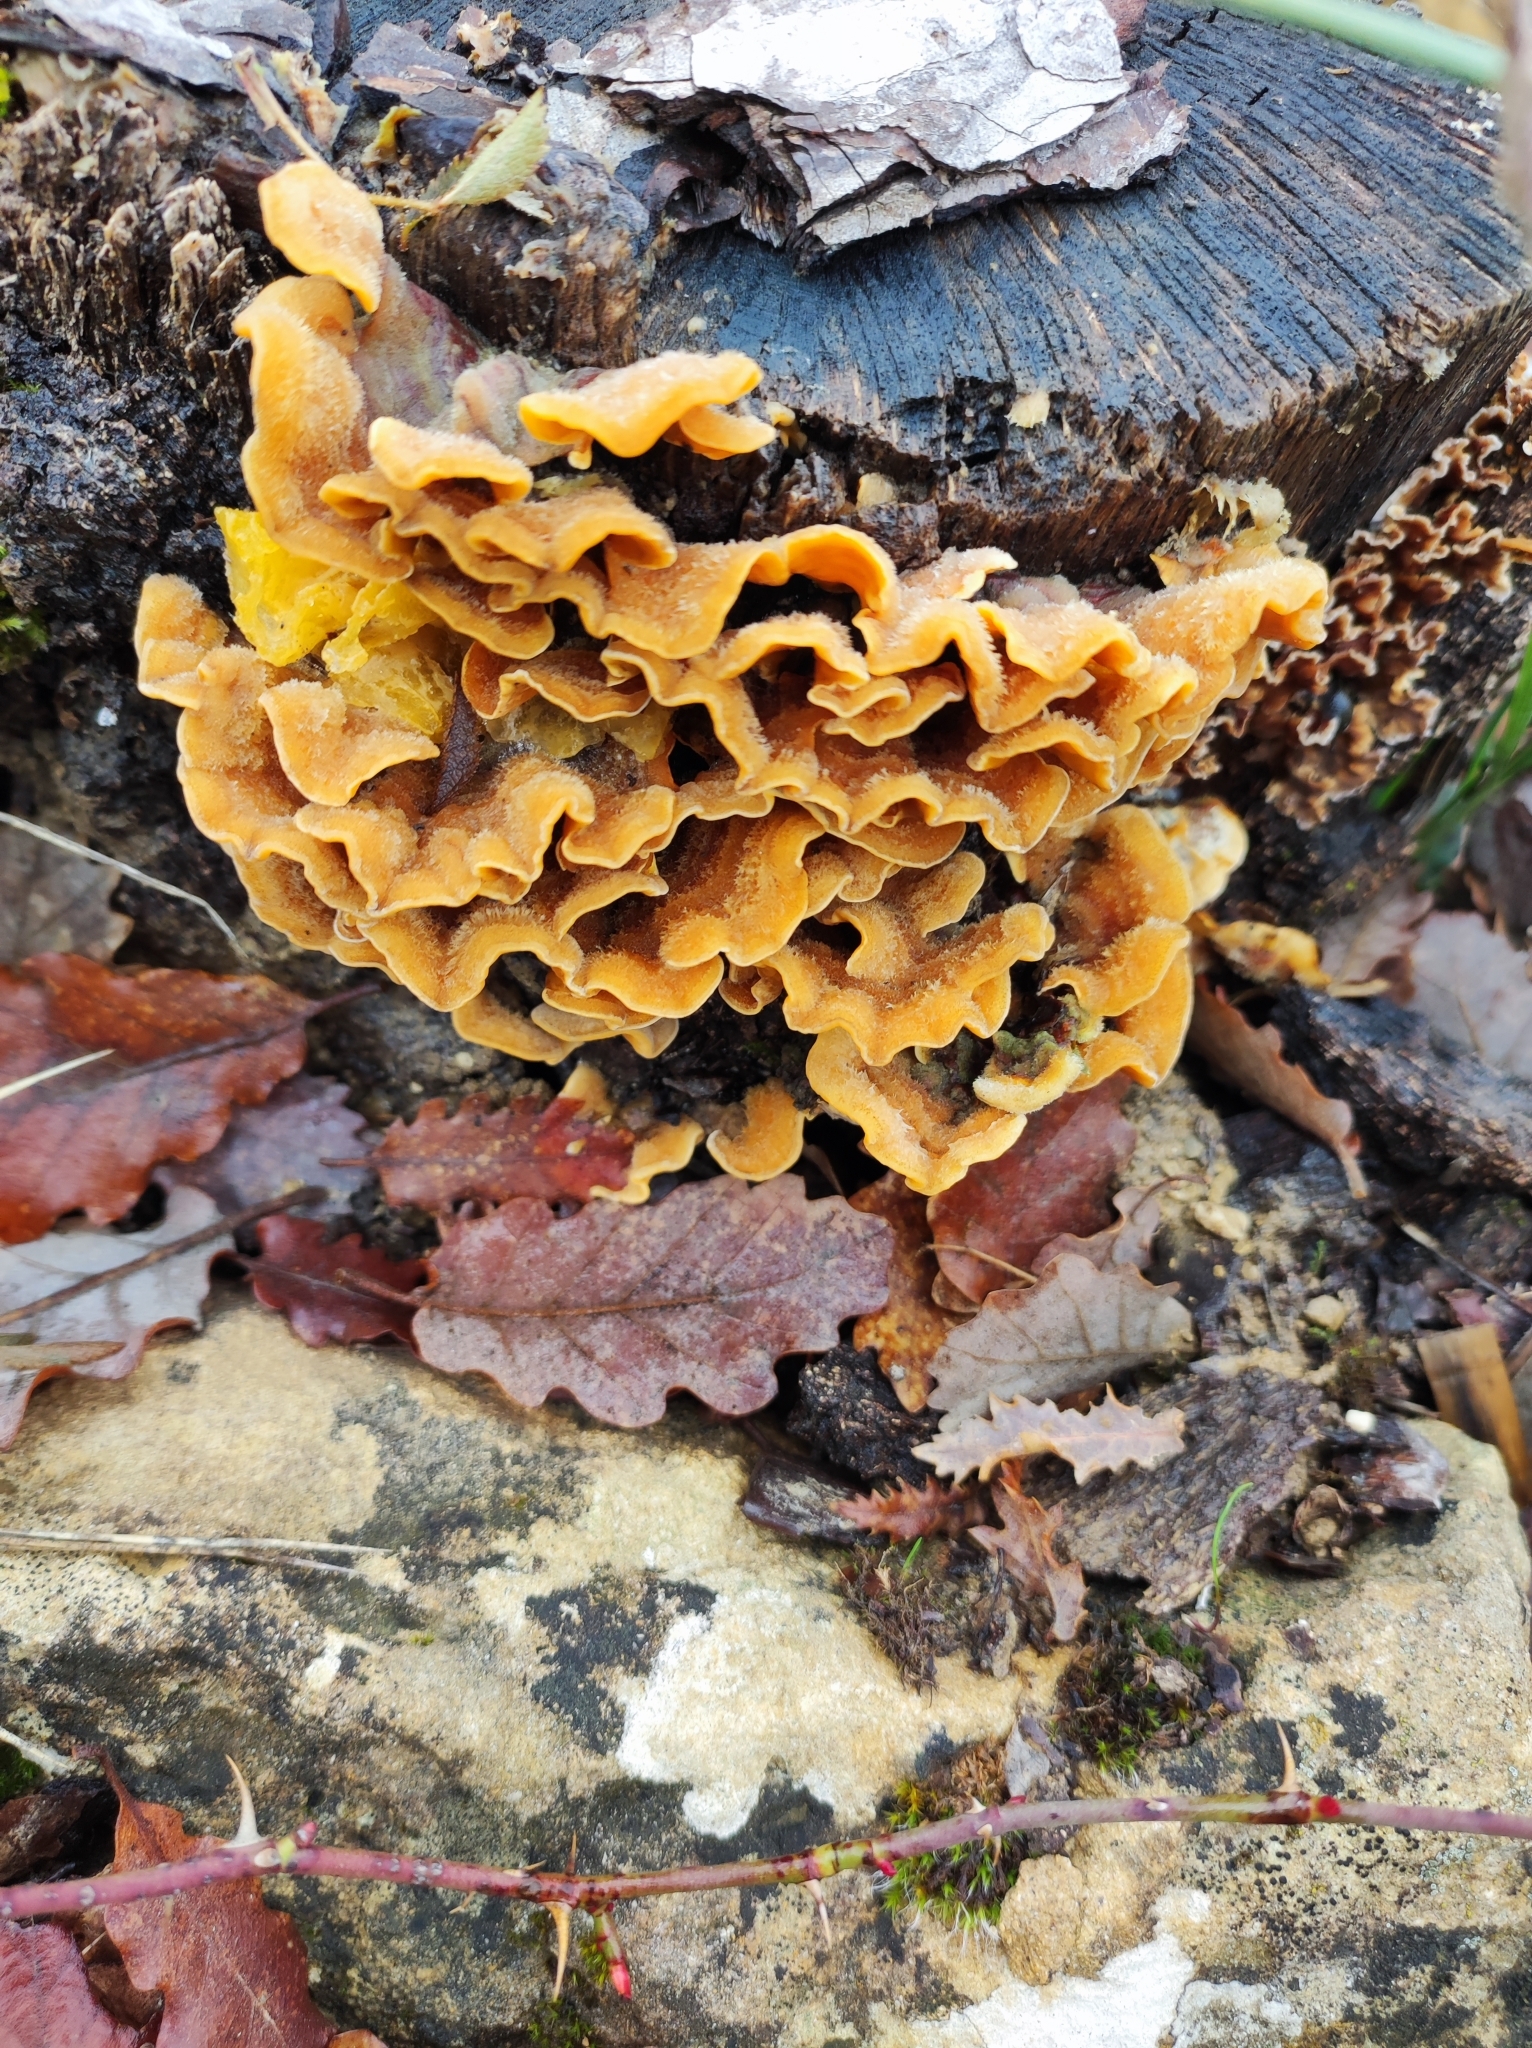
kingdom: Fungi
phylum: Basidiomycota
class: Agaricomycetes
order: Russulales
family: Stereaceae
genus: Stereum
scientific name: Stereum hirsutum
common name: Hairy curtain crust
